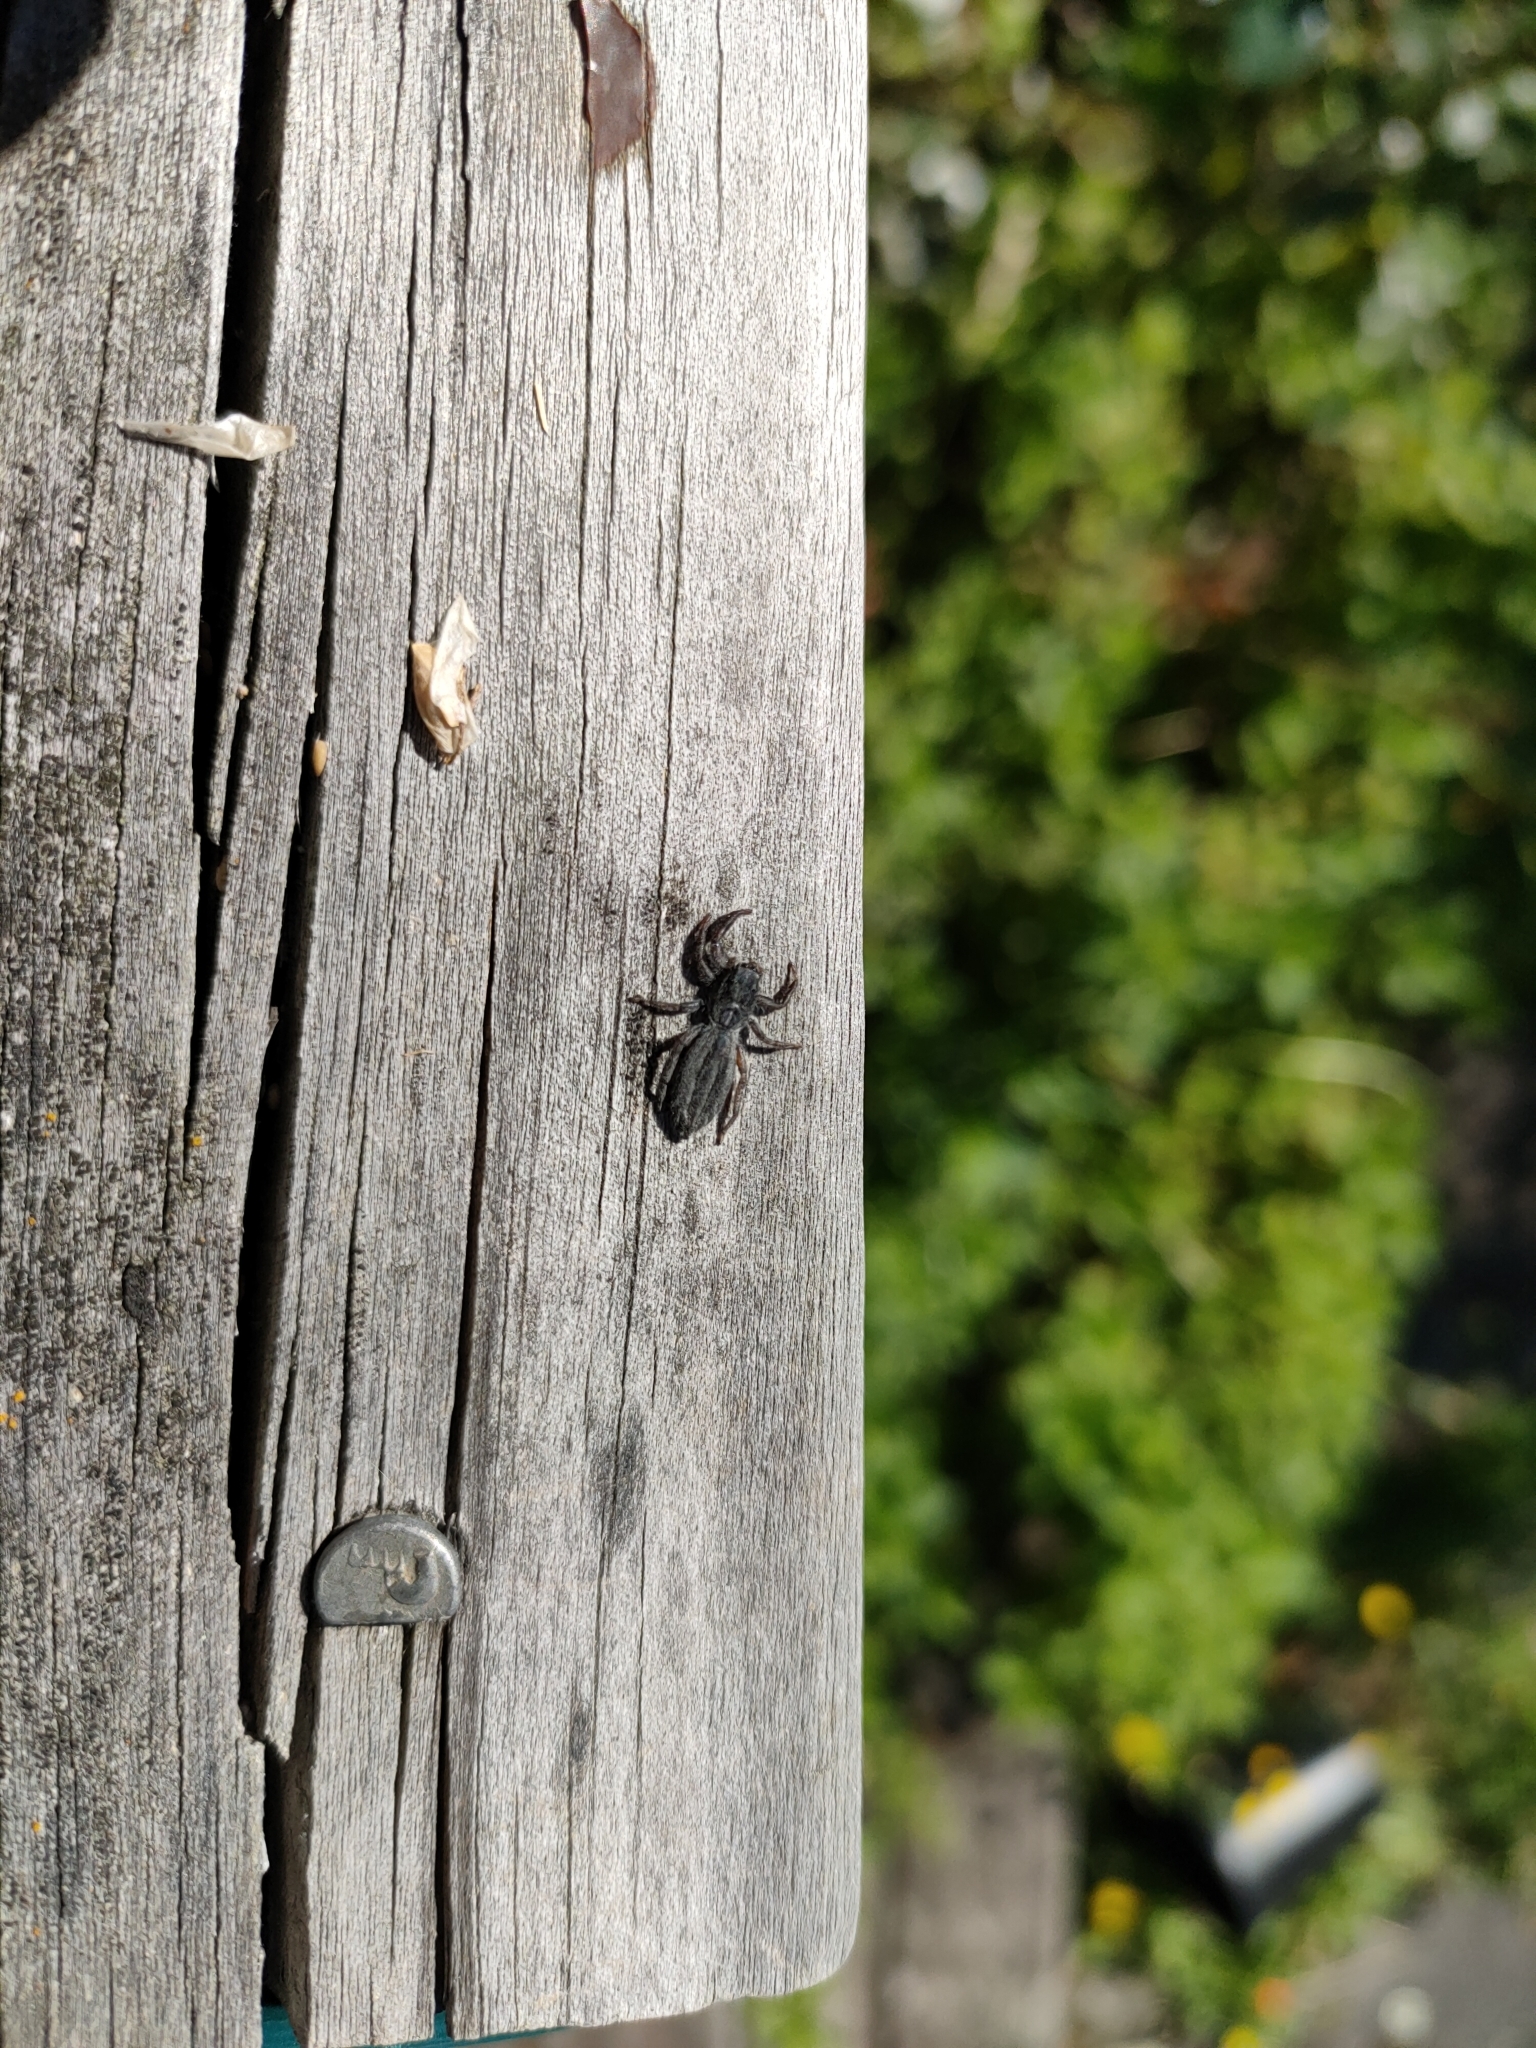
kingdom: Animalia
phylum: Arthropoda
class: Arachnida
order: Araneae
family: Salticidae
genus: Holoplatys
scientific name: Holoplatys apressus
